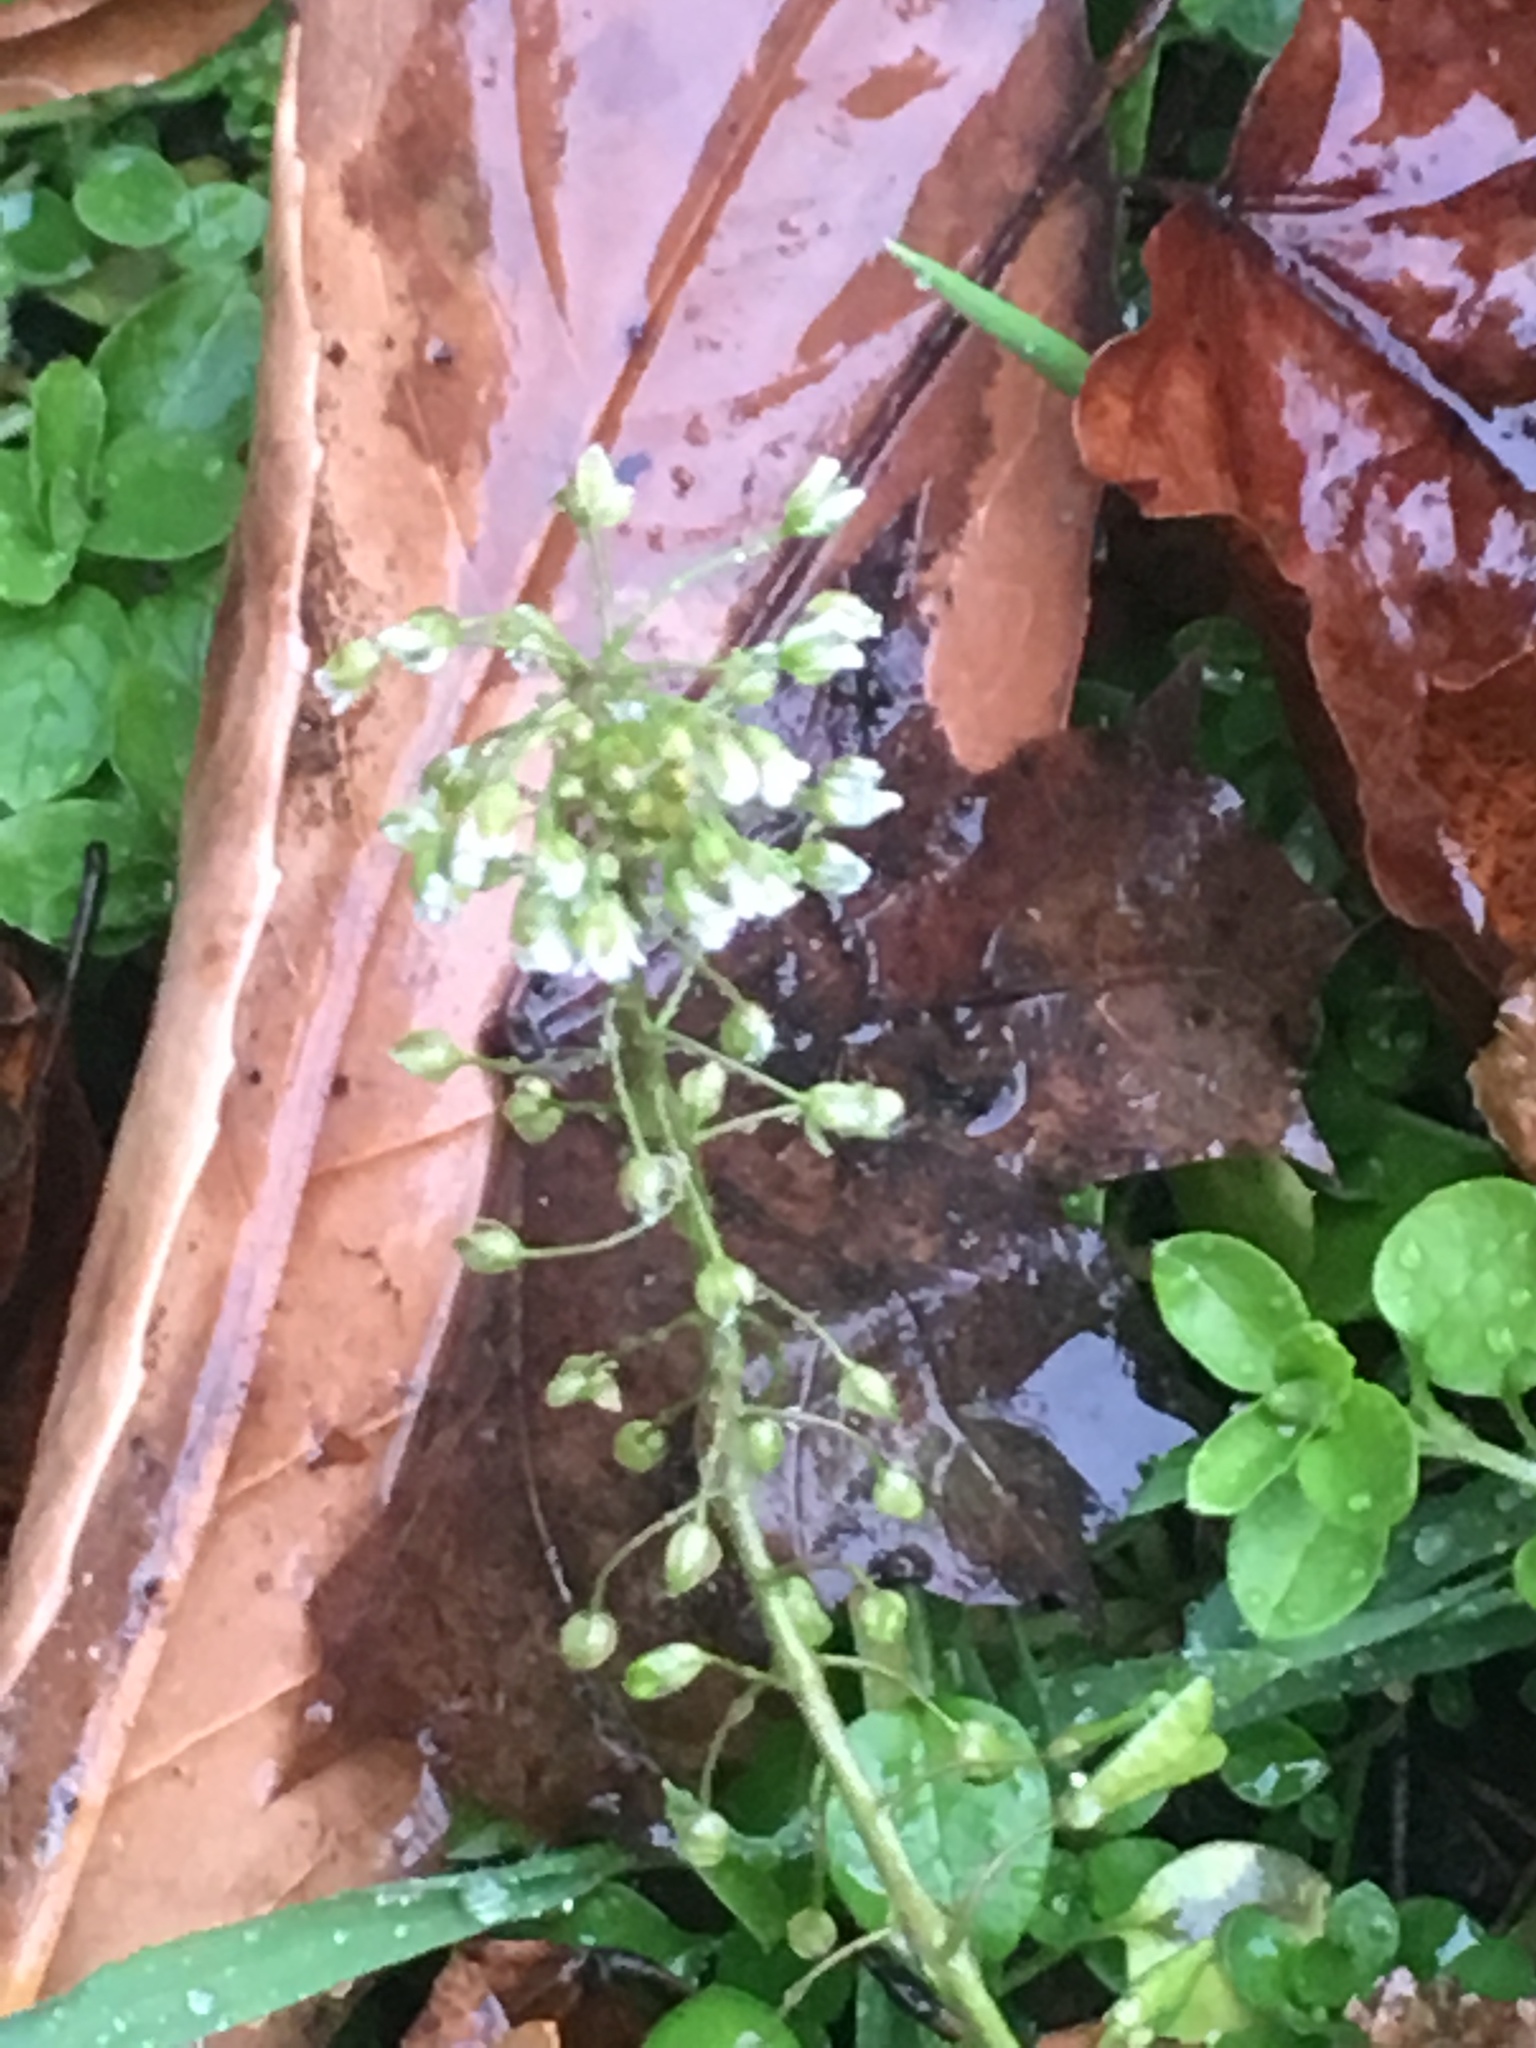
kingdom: Plantae
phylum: Tracheophyta
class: Magnoliopsida
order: Brassicales
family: Brassicaceae
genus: Capsella
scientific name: Capsella bursa-pastoris
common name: Shepherd's purse
